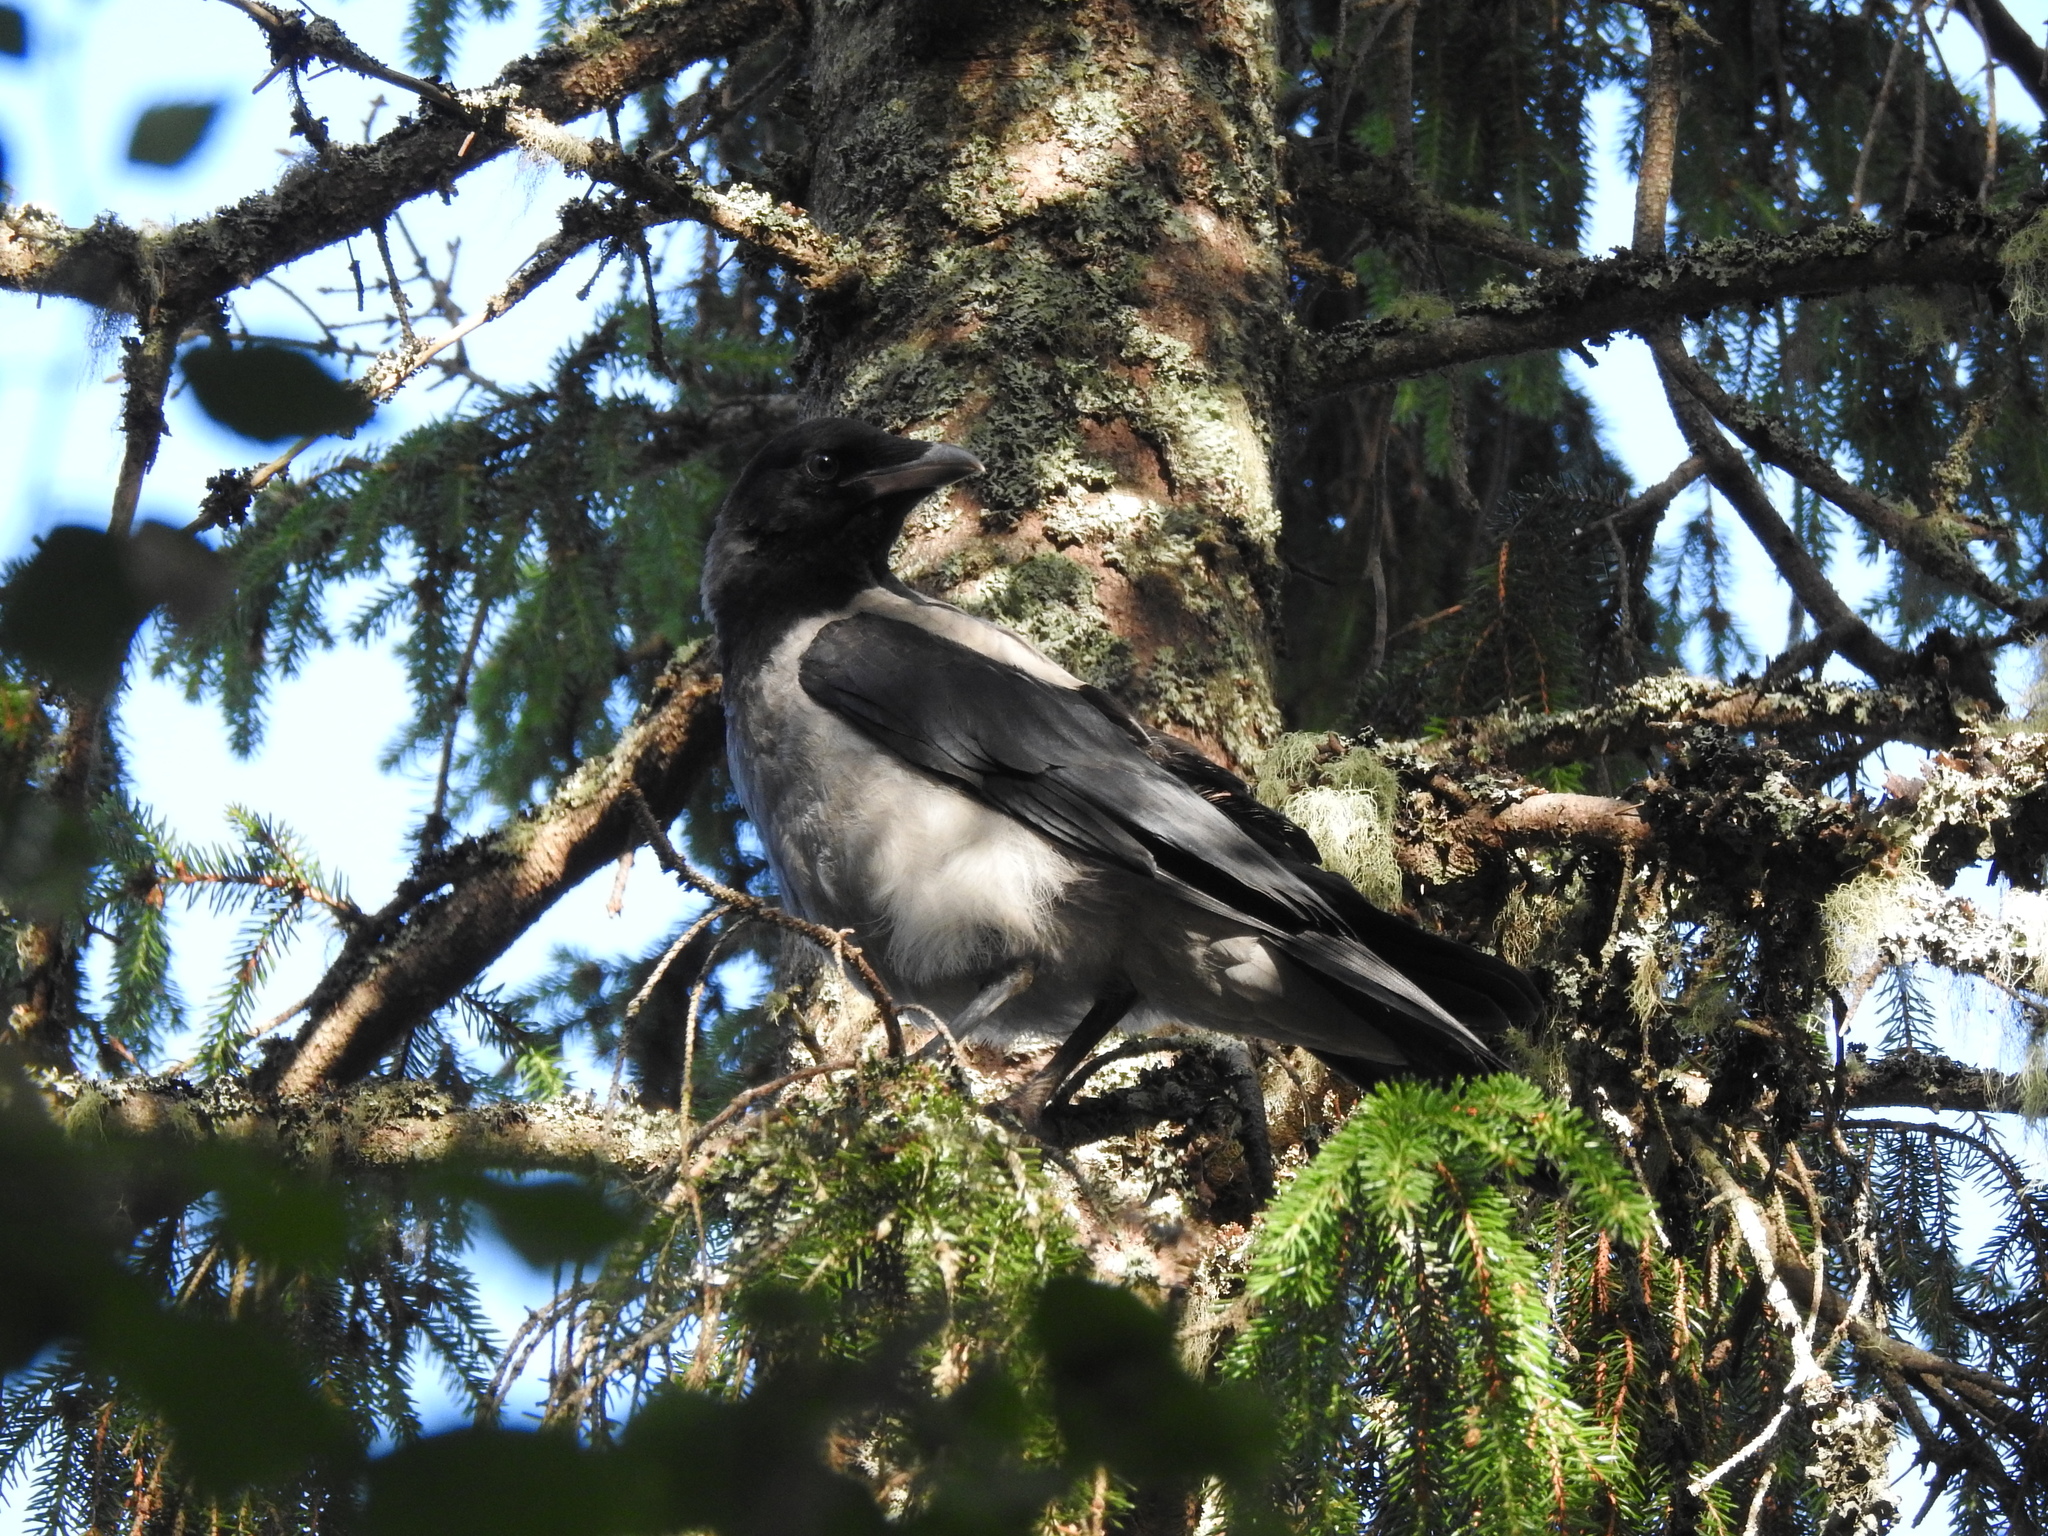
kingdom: Animalia
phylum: Chordata
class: Aves
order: Passeriformes
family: Corvidae
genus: Corvus
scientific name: Corvus cornix
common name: Hooded crow
